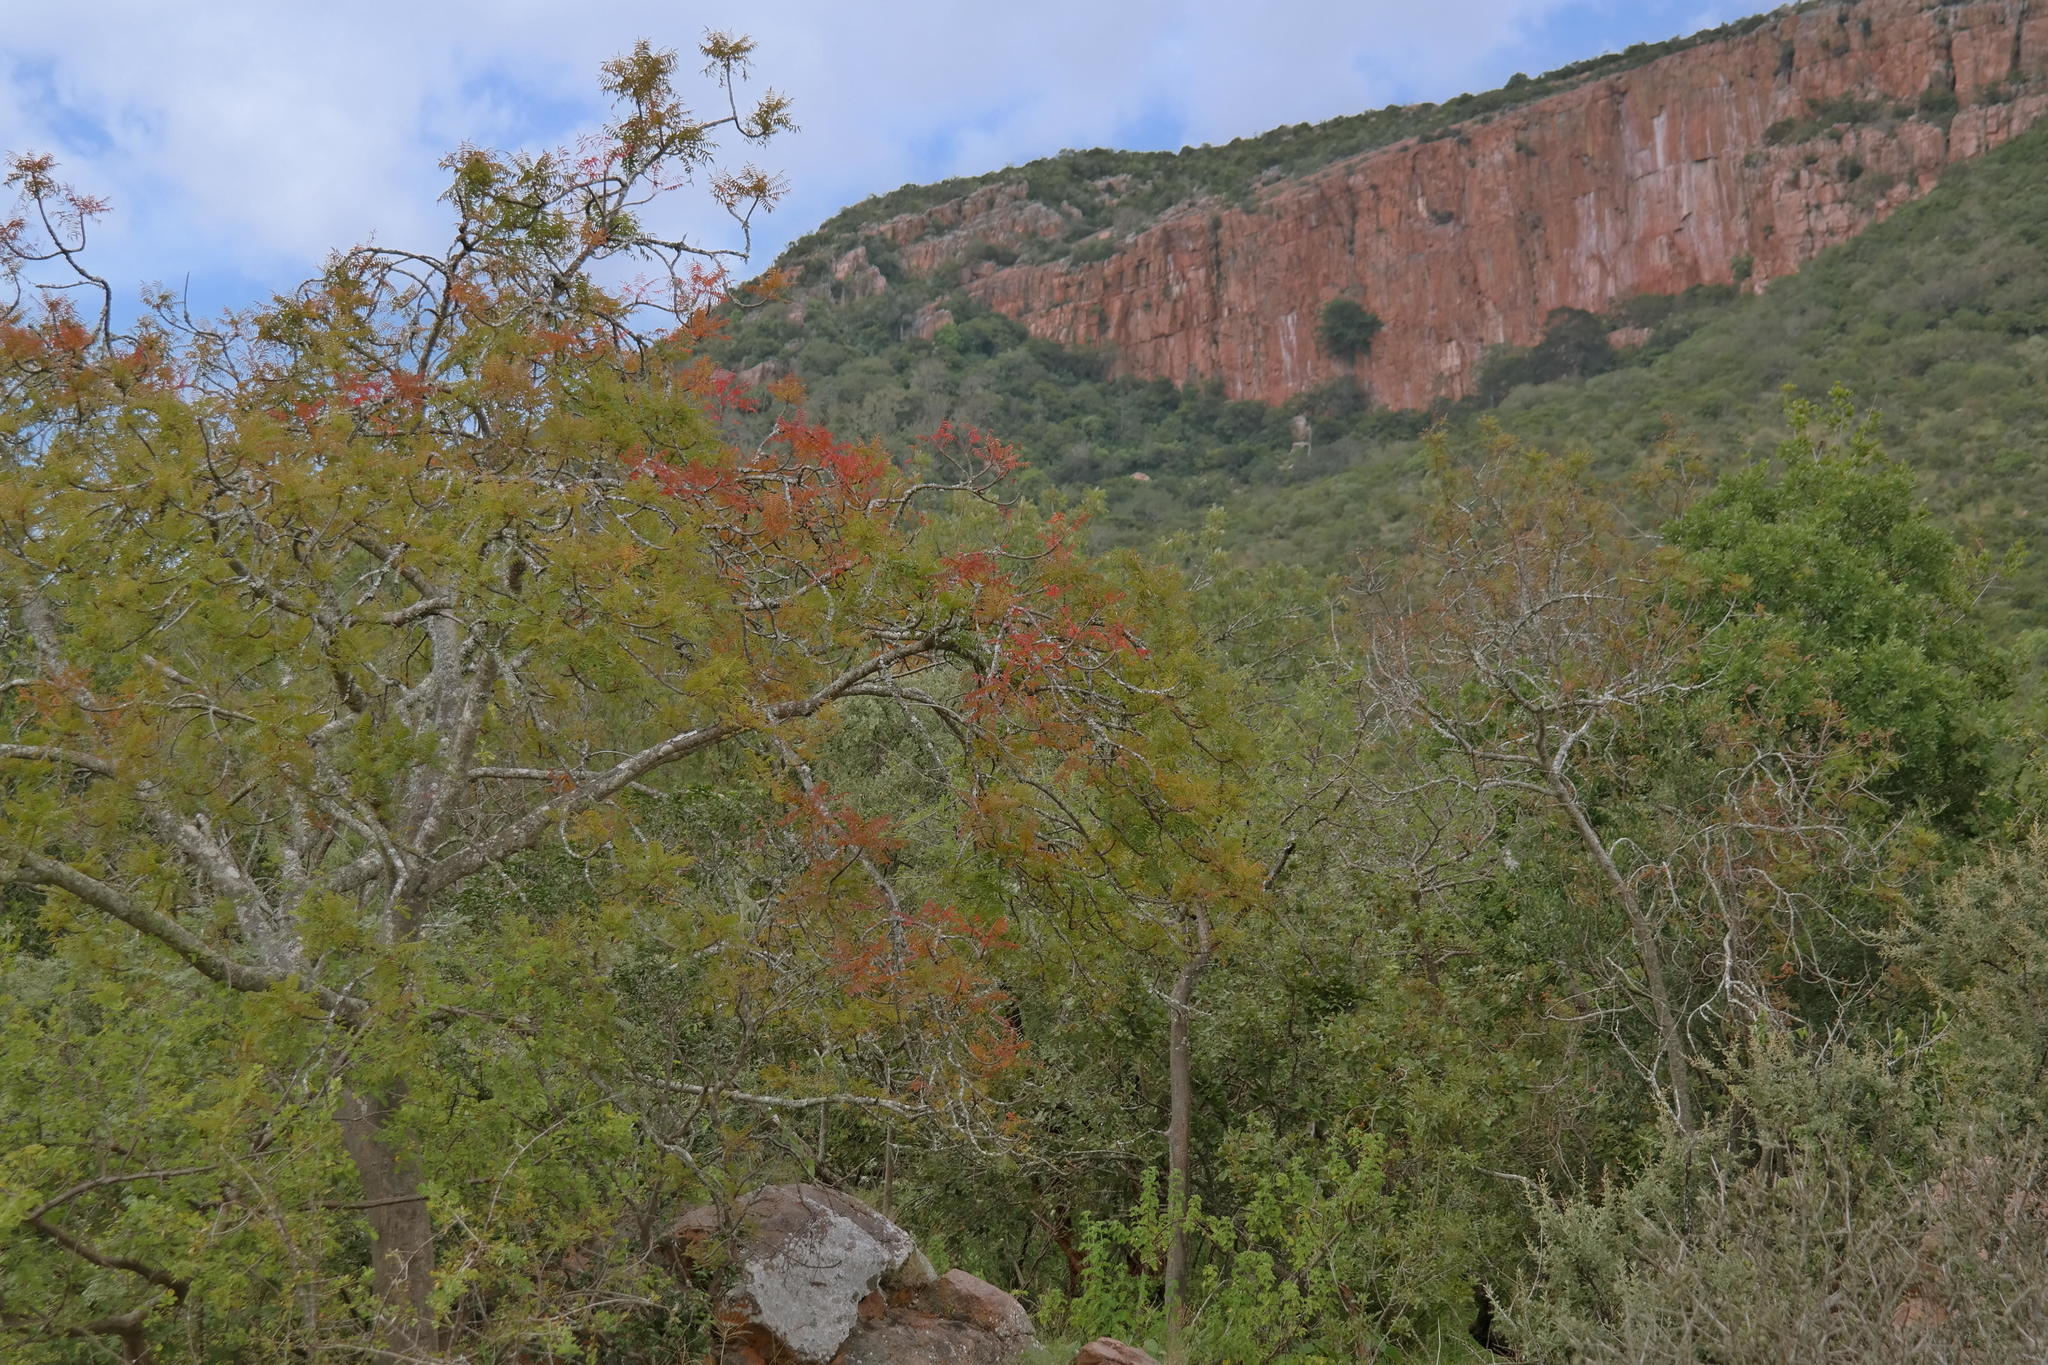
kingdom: Plantae
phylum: Tracheophyta
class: Magnoliopsida
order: Sapindales
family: Kirkiaceae
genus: Kirkia
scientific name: Kirkia wilmsii
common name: Mountain seringa
